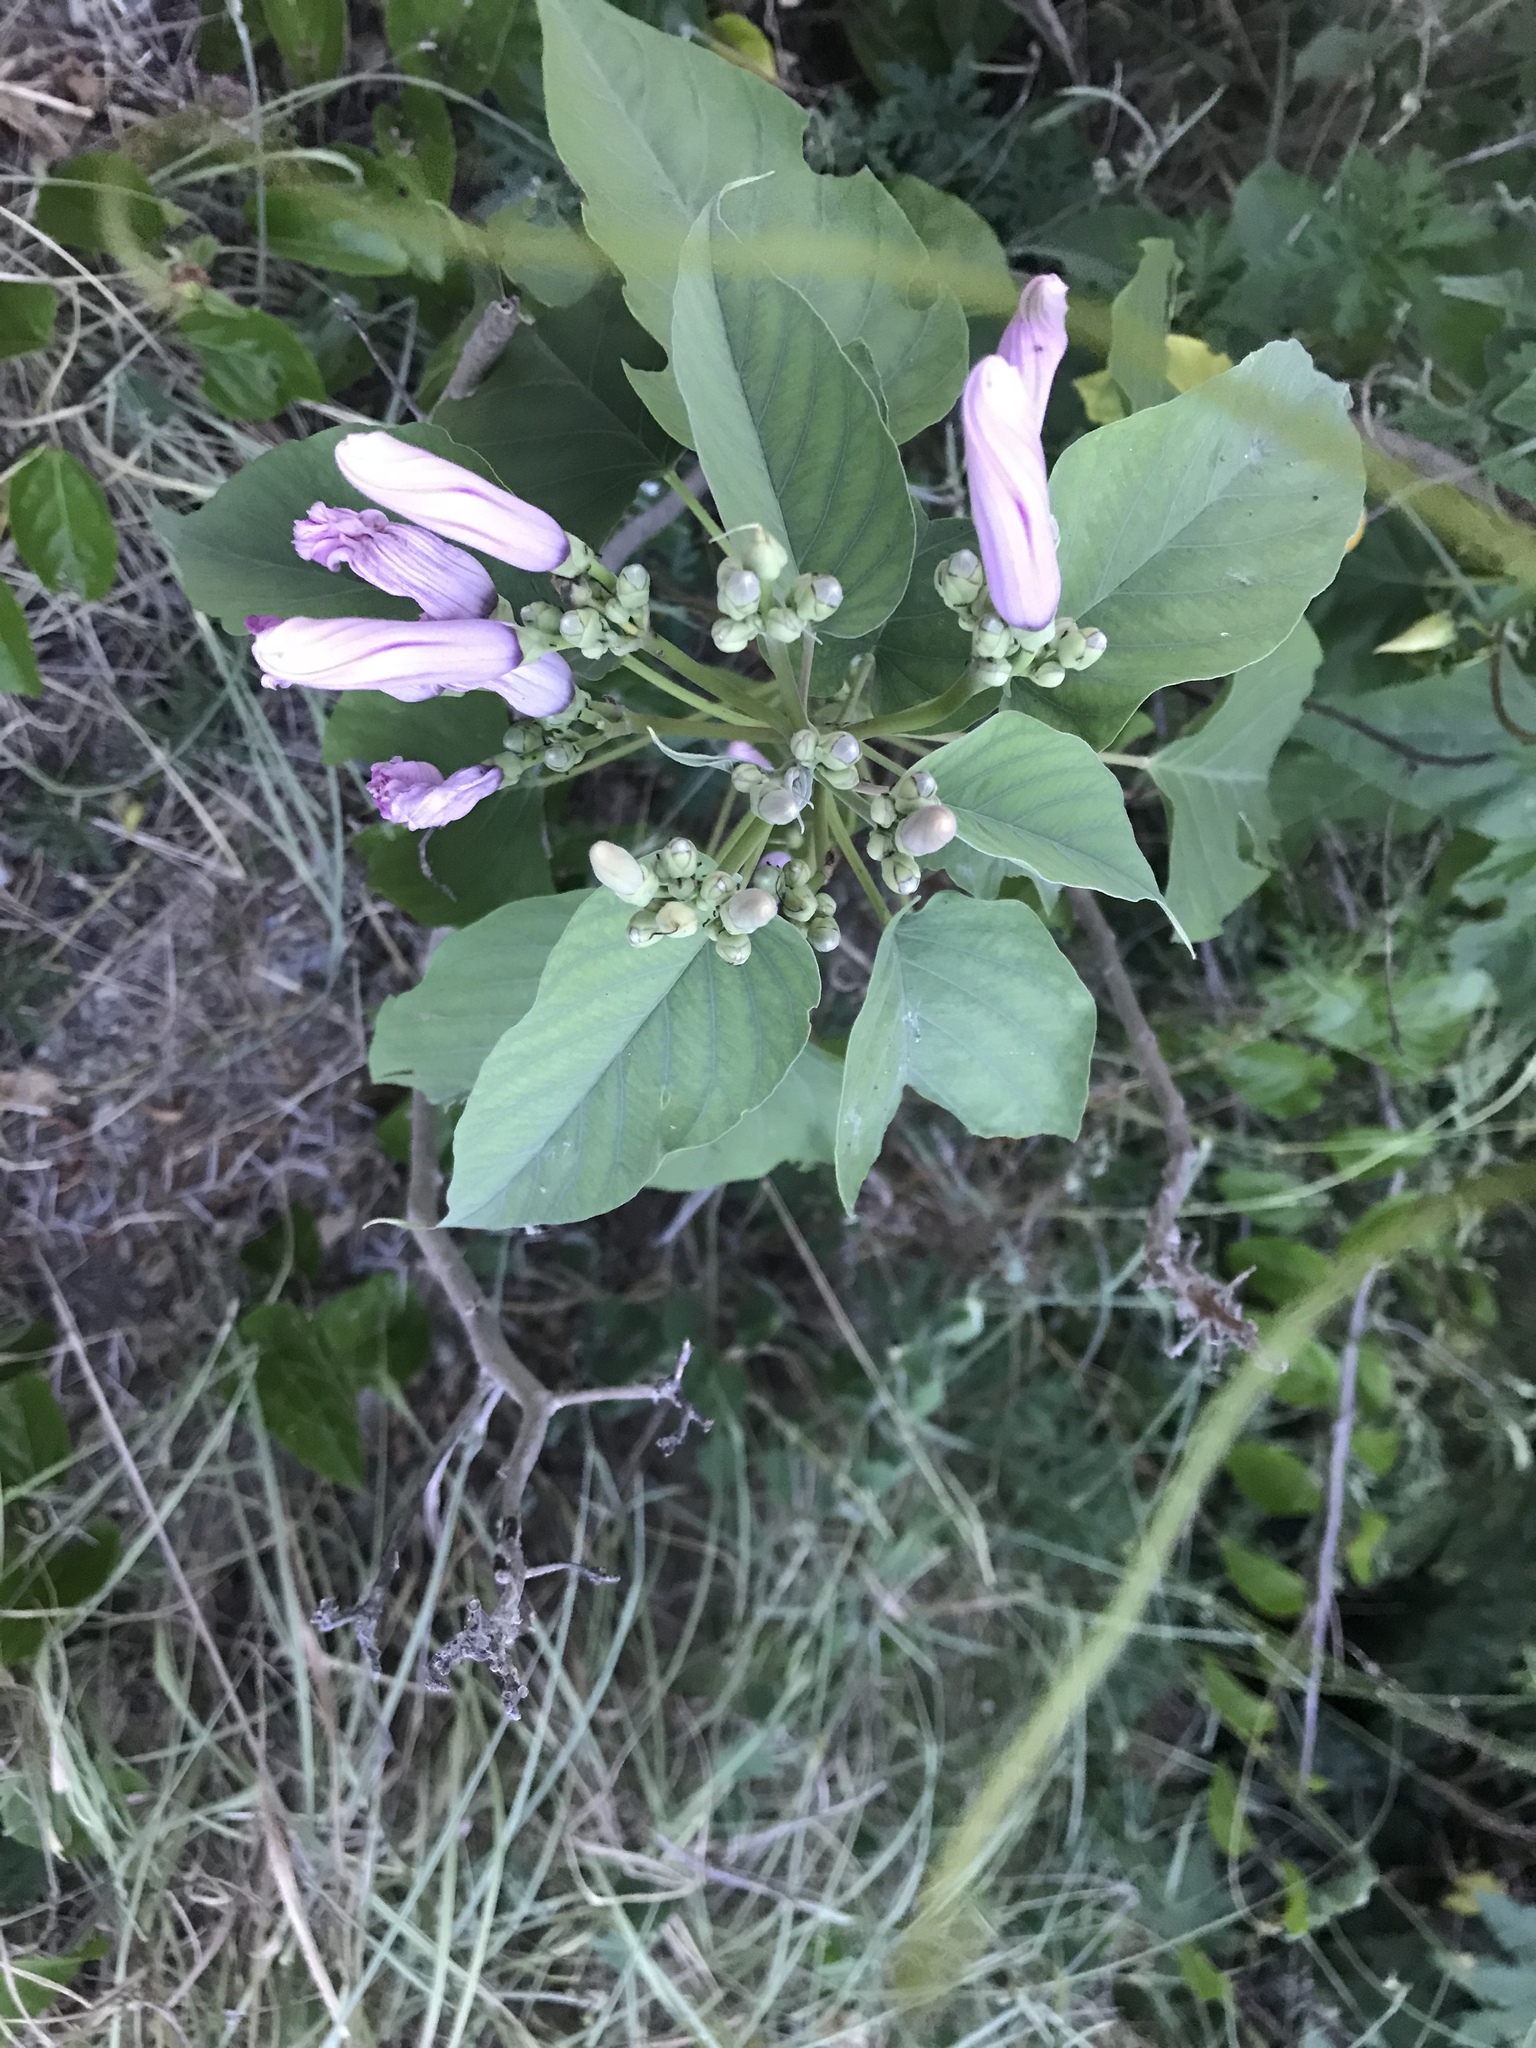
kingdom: Plantae
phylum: Tracheophyta
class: Magnoliopsida
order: Solanales
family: Convolvulaceae
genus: Ipomoea
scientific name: Ipomoea carnea
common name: Morning-glory
